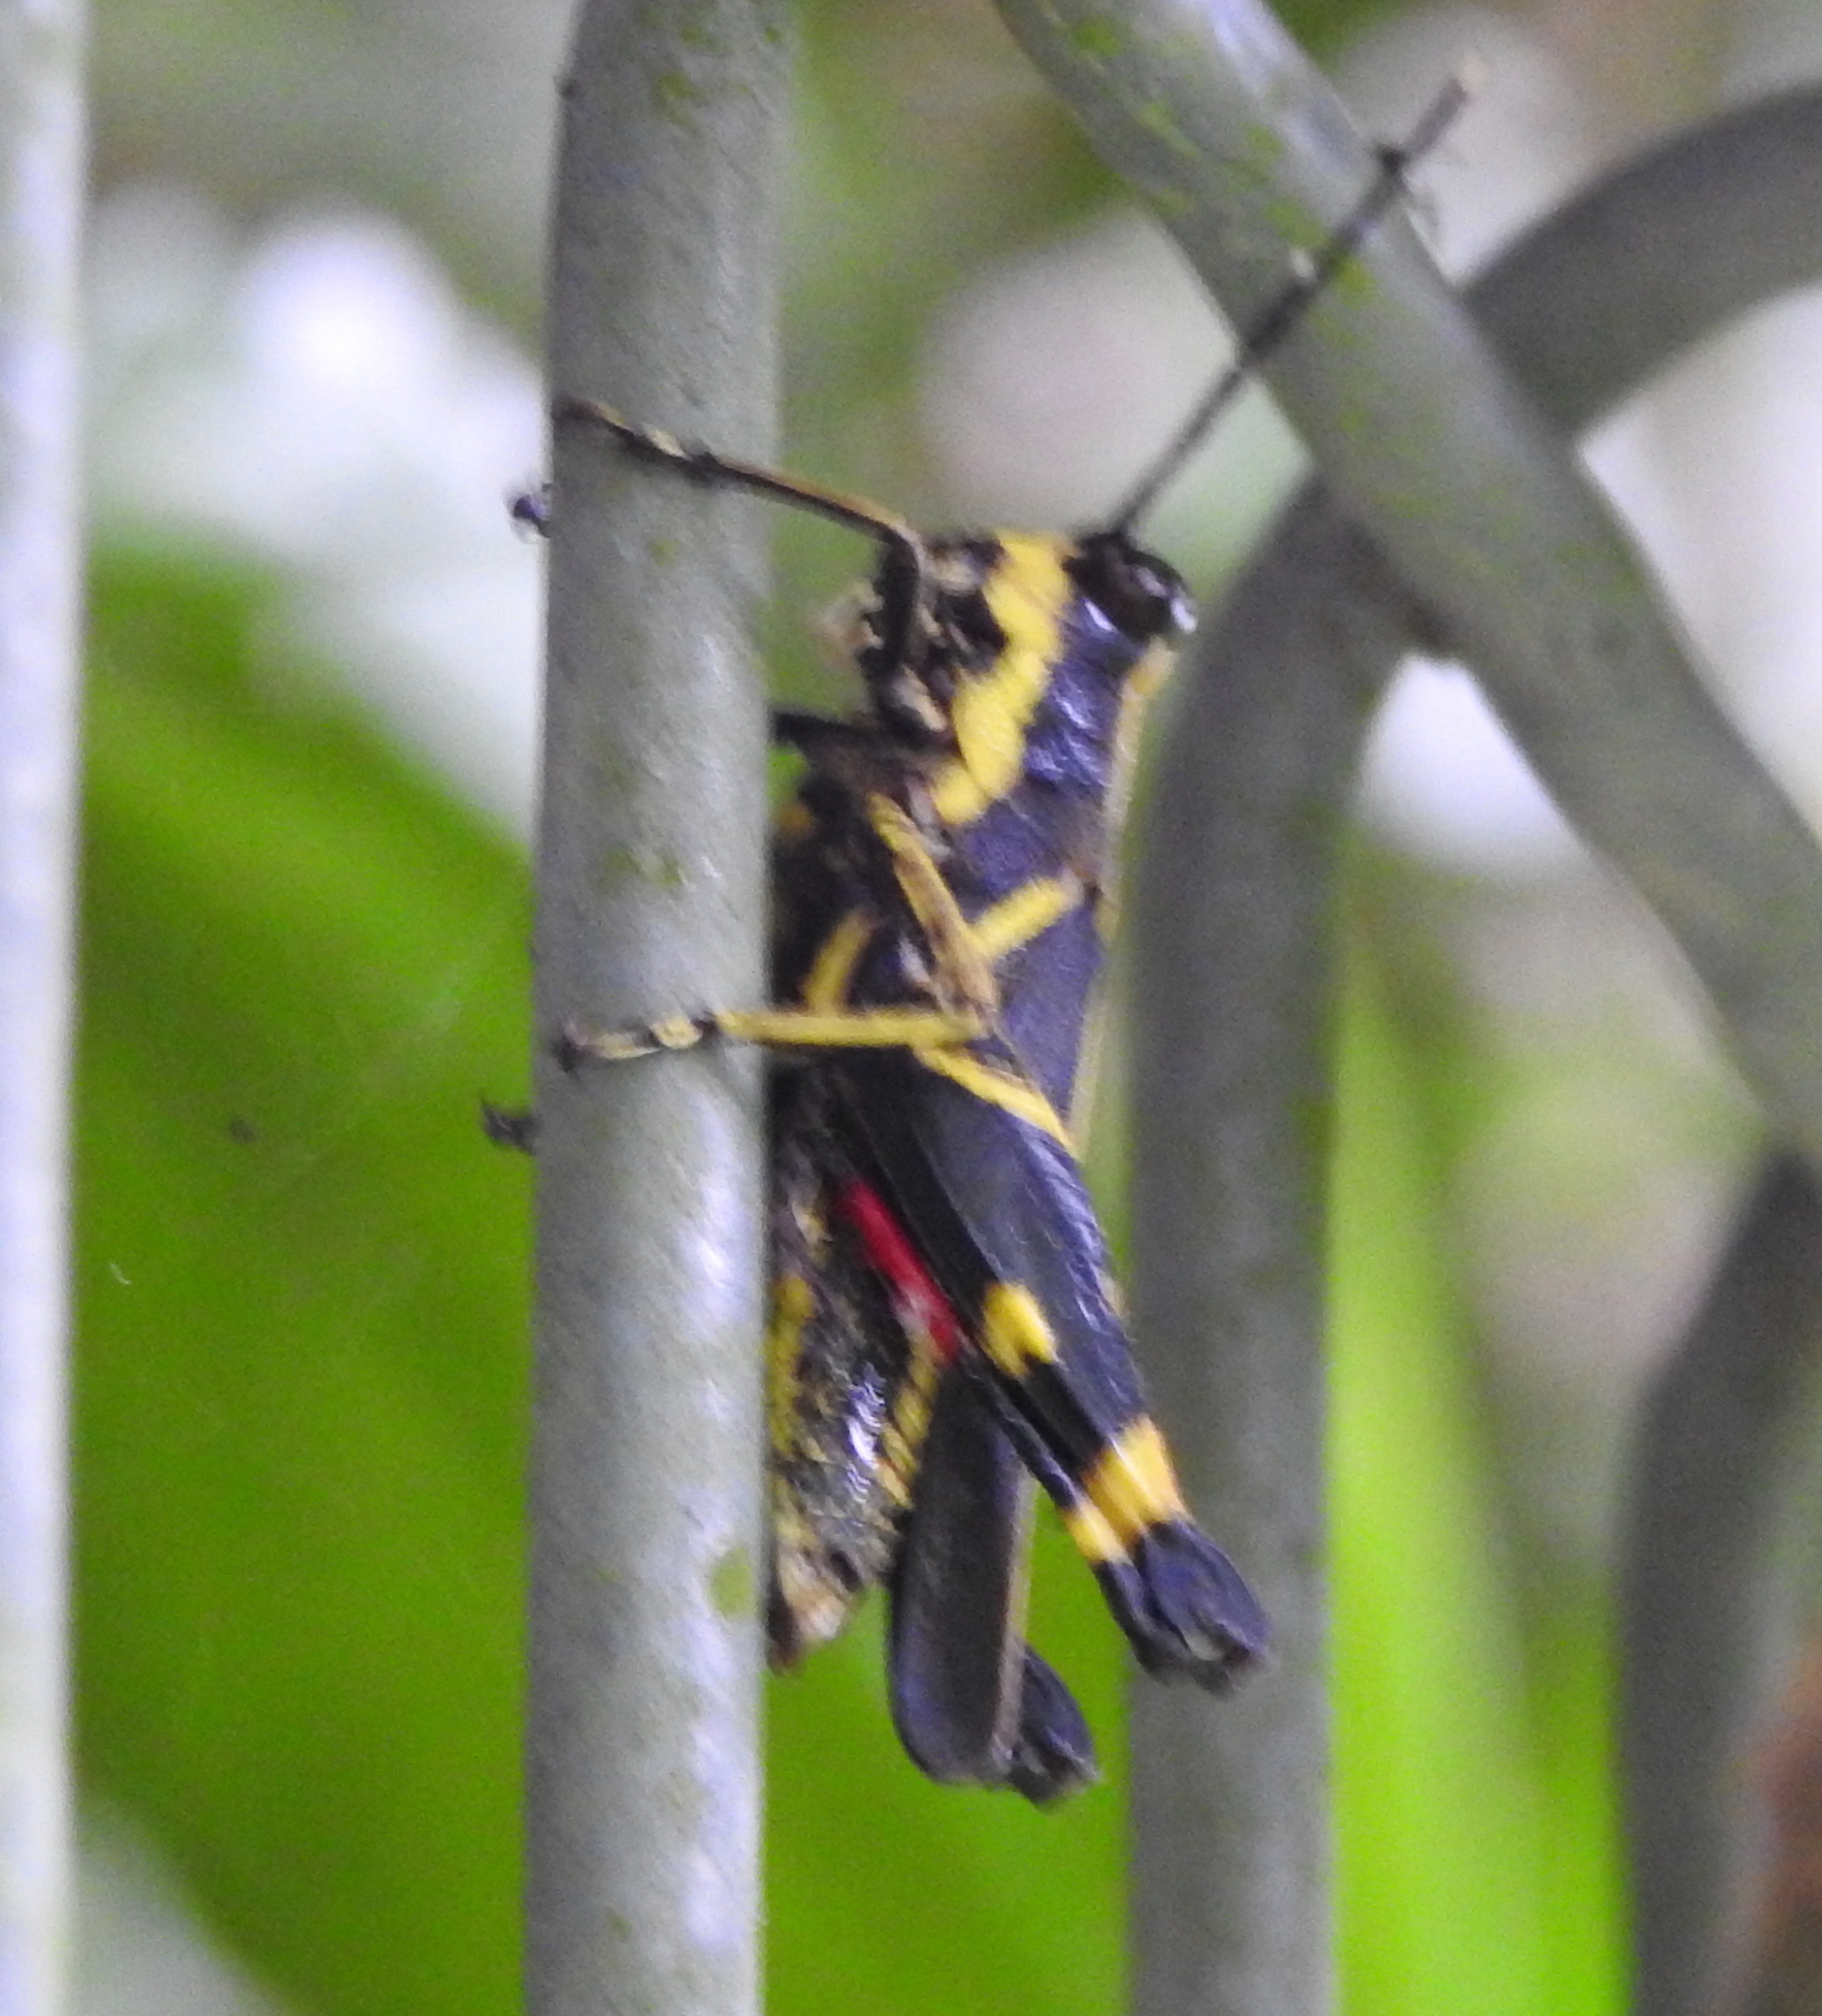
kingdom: Animalia
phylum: Arthropoda
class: Insecta
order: Orthoptera
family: Acrididae
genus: Traulia
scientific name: Traulia azureipennis
